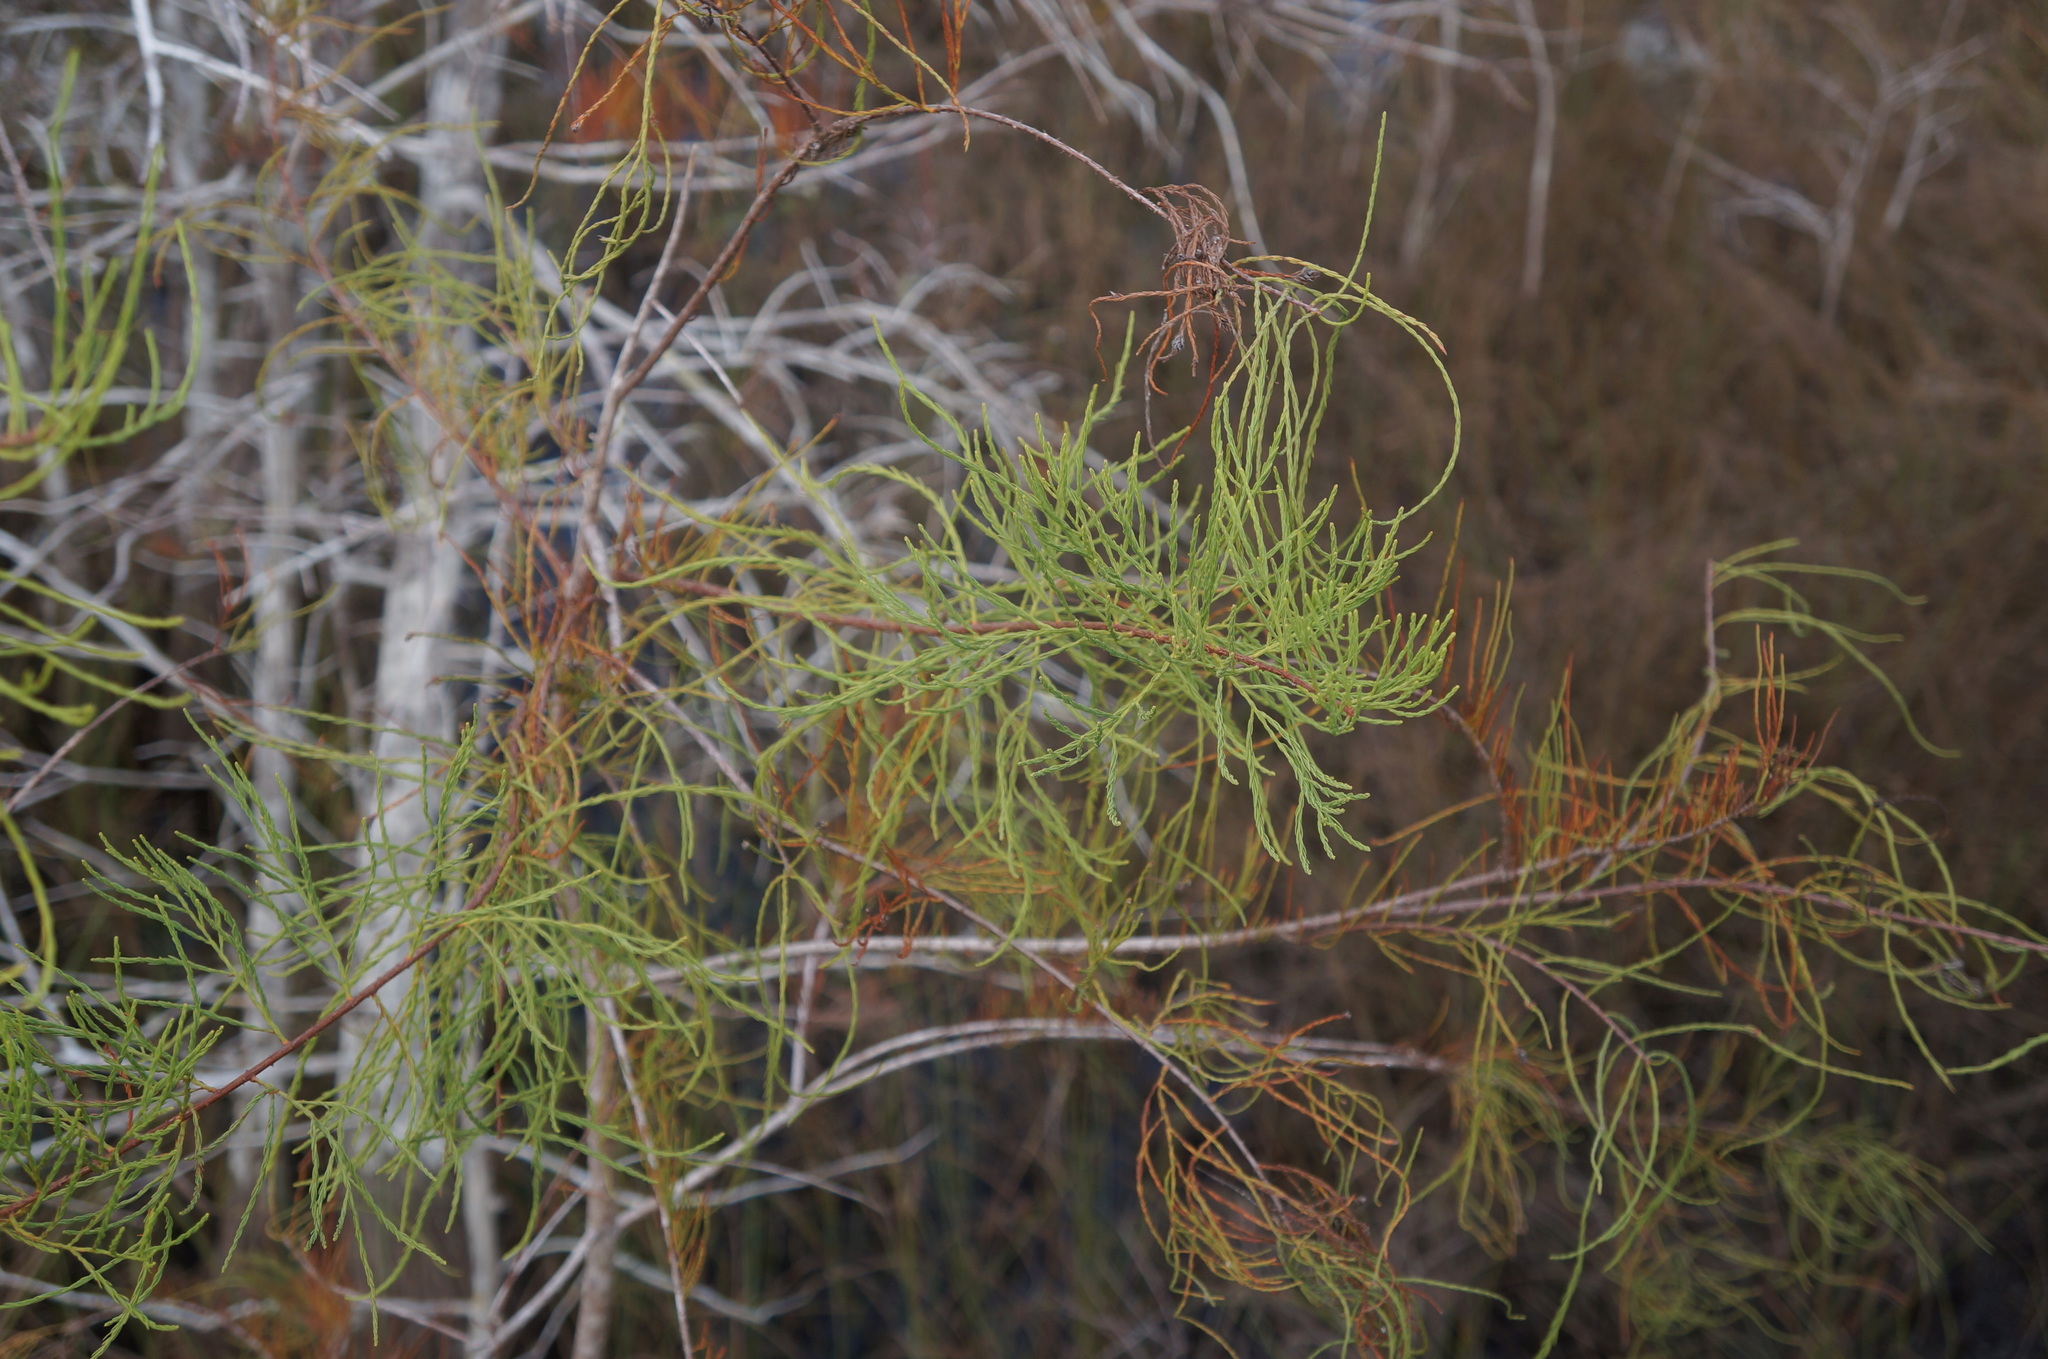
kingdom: Plantae
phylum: Tracheophyta
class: Pinopsida
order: Pinales
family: Cupressaceae
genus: Taxodium
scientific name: Taxodium distichum
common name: Bald cypress
